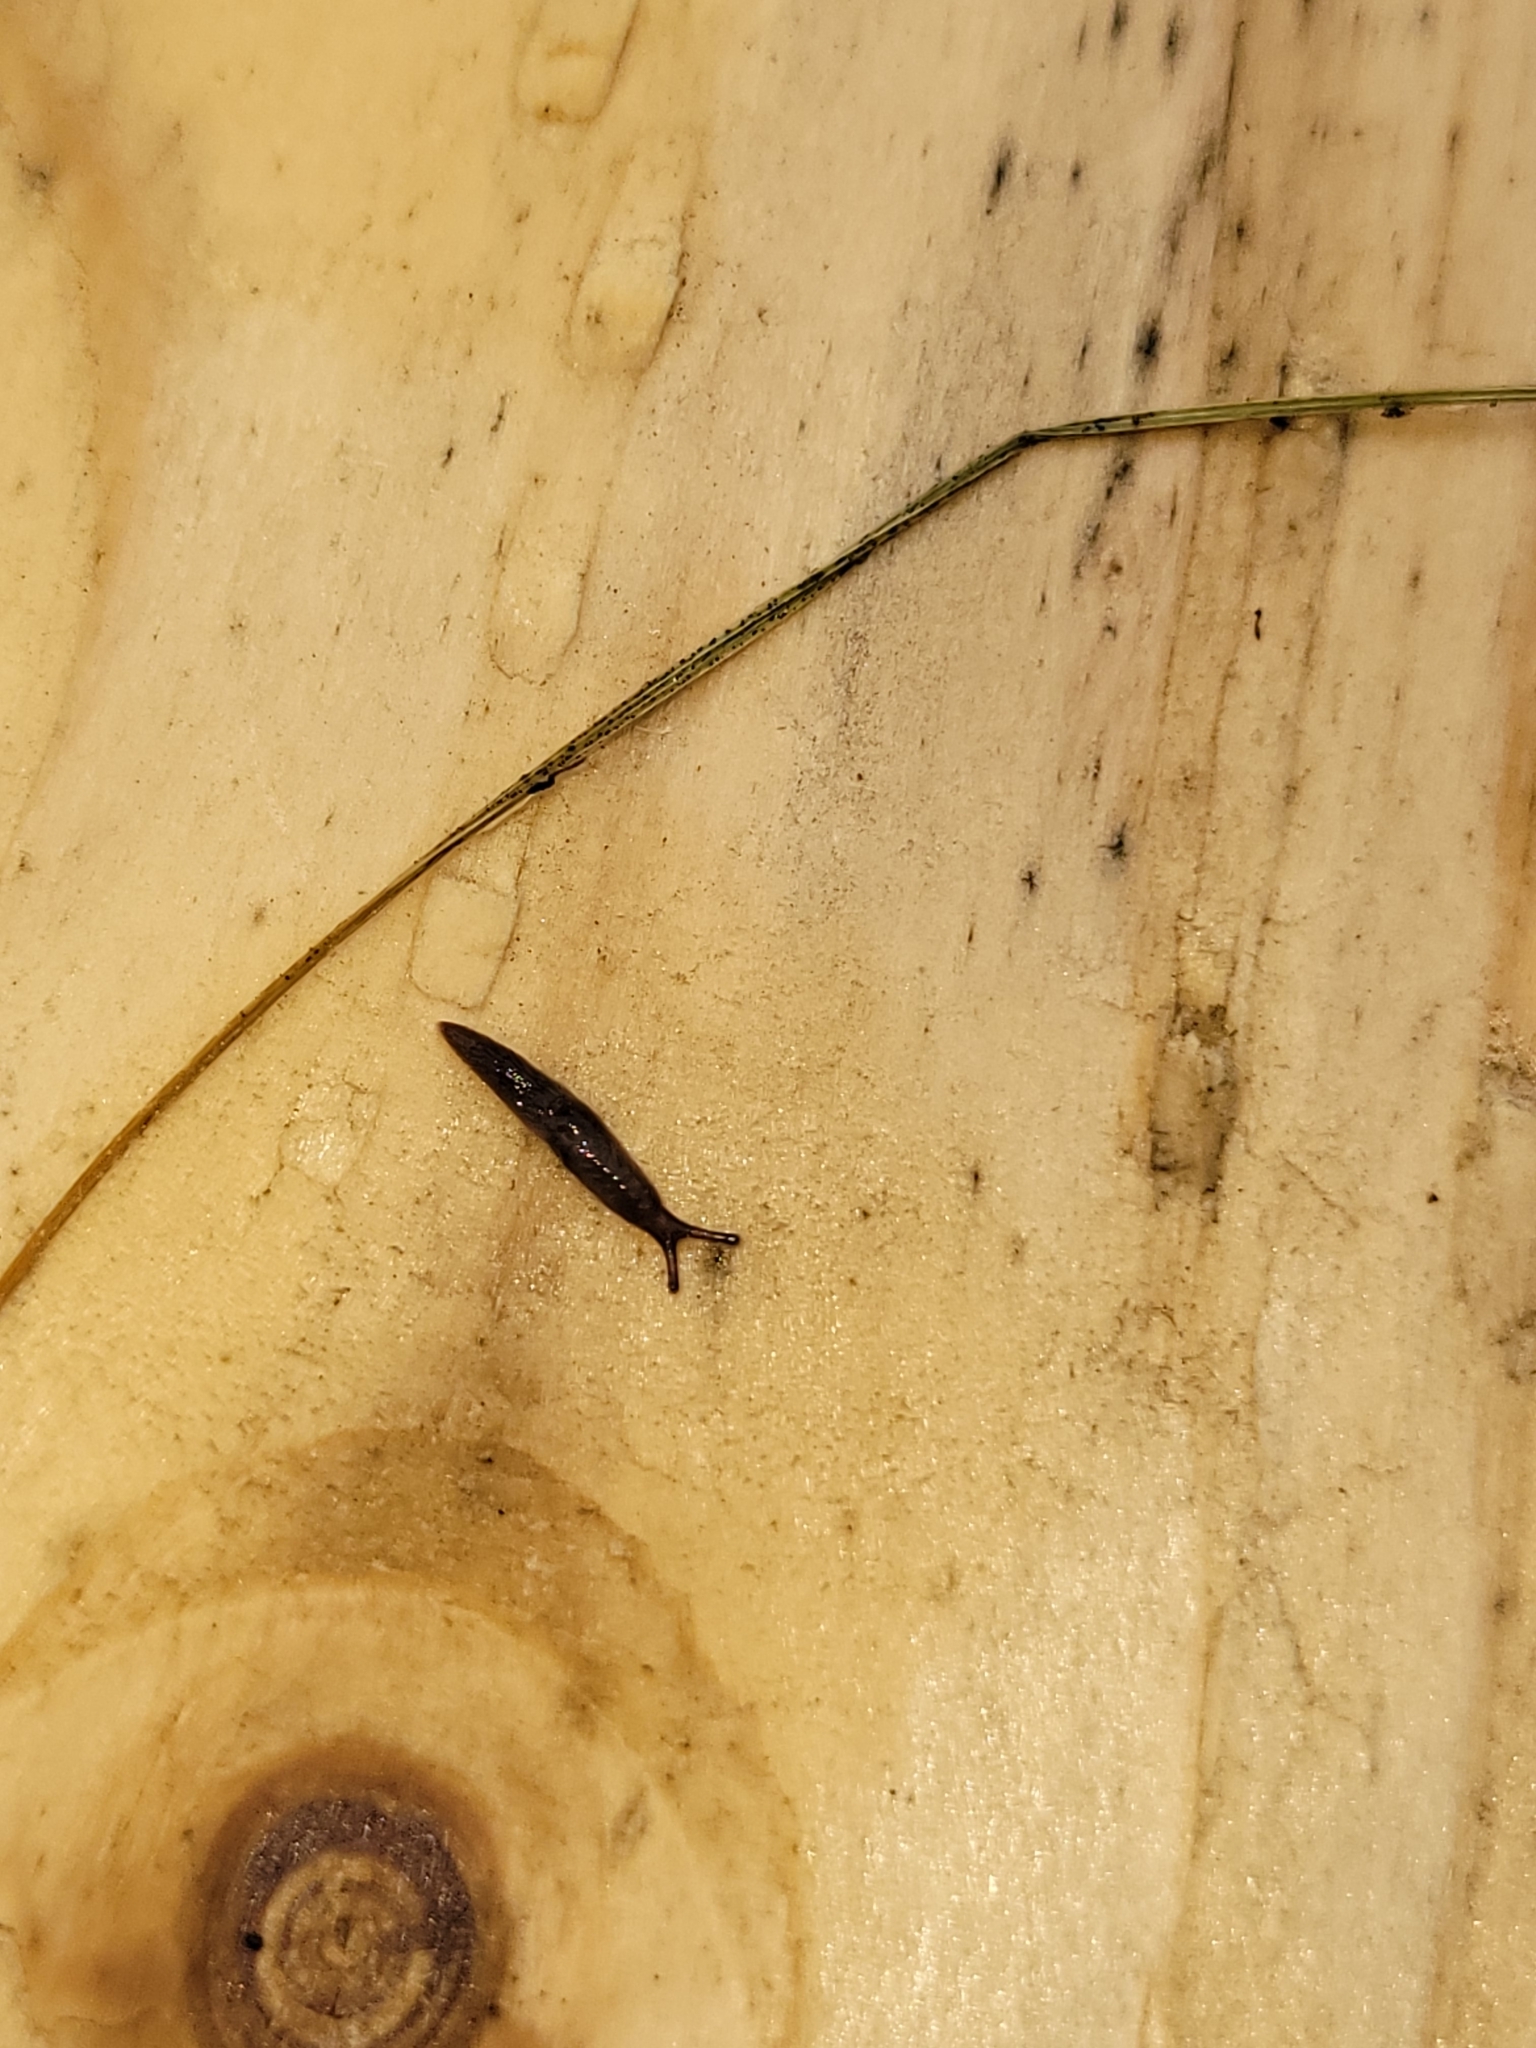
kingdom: Animalia
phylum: Mollusca
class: Gastropoda
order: Stylommatophora
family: Agriolimacidae
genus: Deroceras
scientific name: Deroceras laeve
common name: Marsh slug
